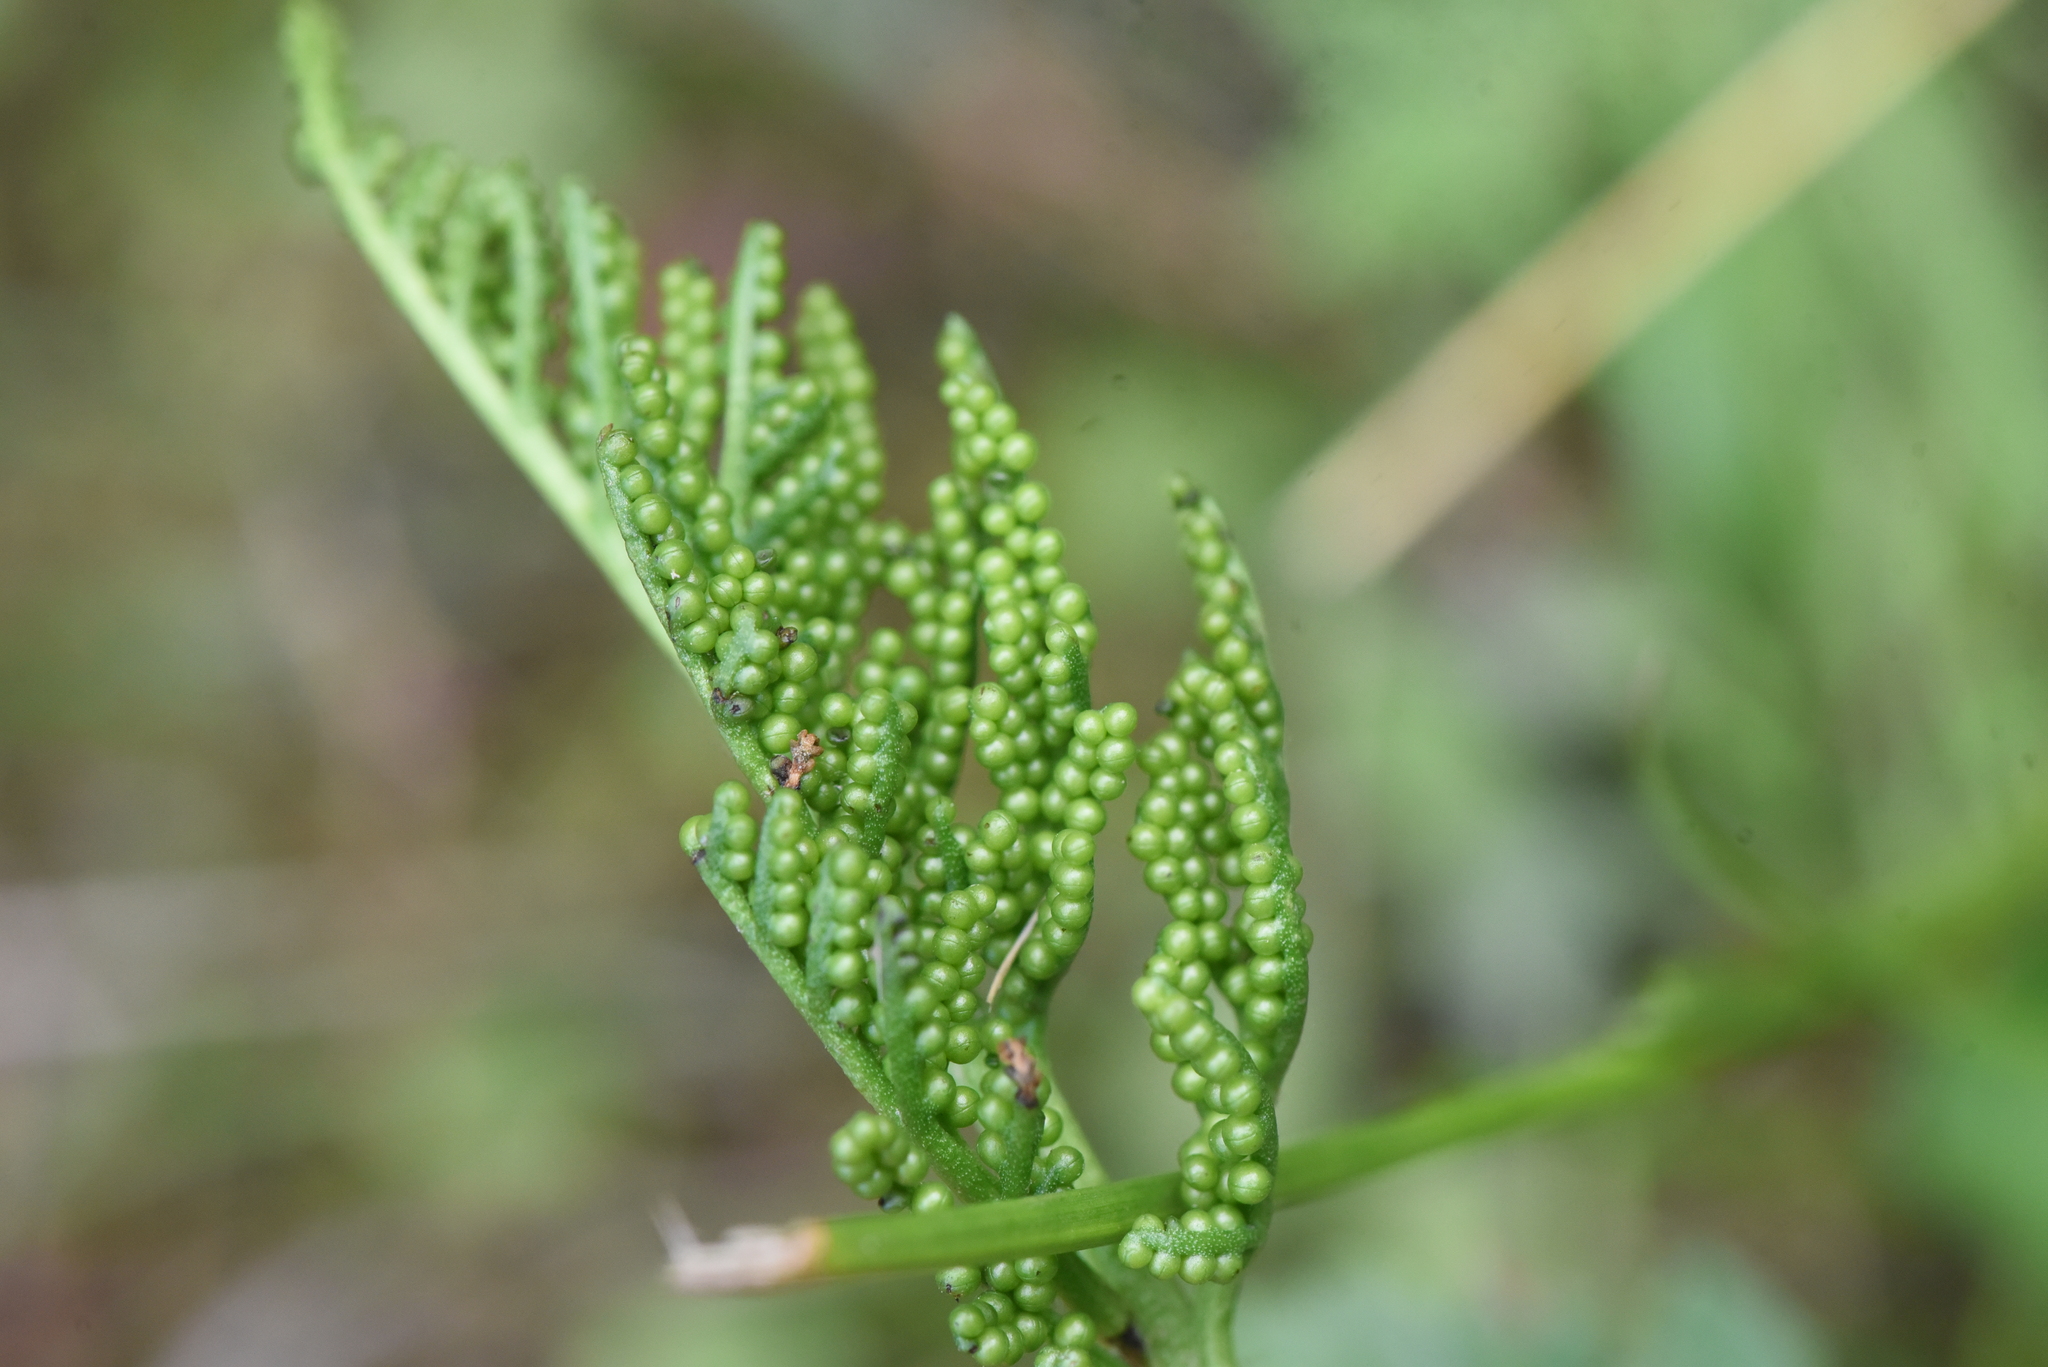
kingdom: Plantae
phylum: Tracheophyta
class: Polypodiopsida
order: Ophioglossales
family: Ophioglossaceae
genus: Sceptridium
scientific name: Sceptridium multifidum
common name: Leathery grape fern
